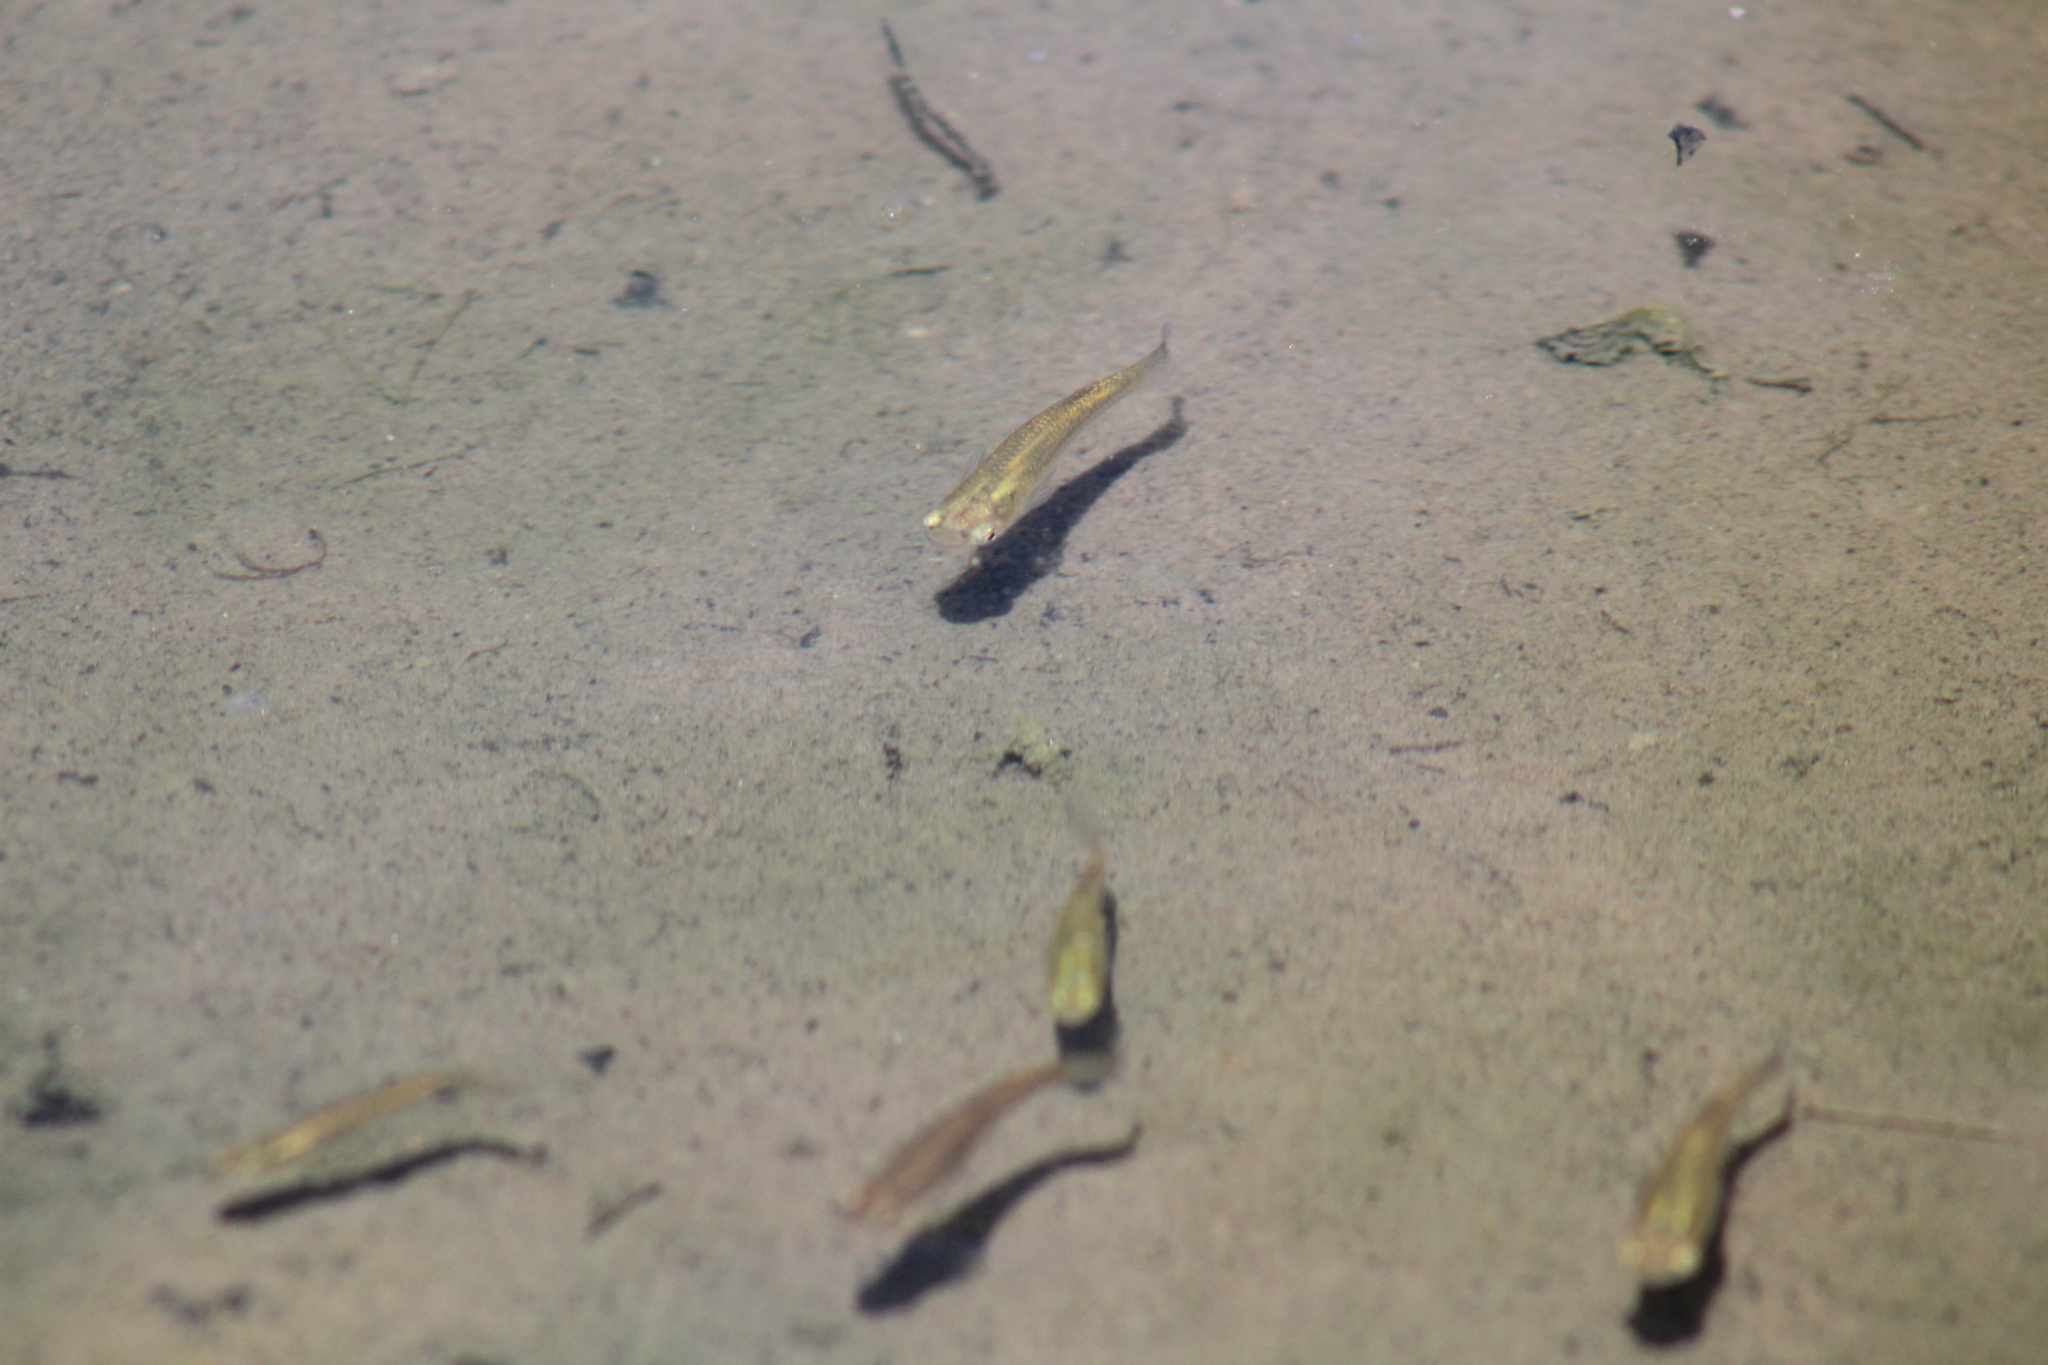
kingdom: Animalia
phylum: Chordata
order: Cyprinodontiformes
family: Poeciliidae
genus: Gambusia
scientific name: Gambusia holbrooki
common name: Eastern mosquitofish
